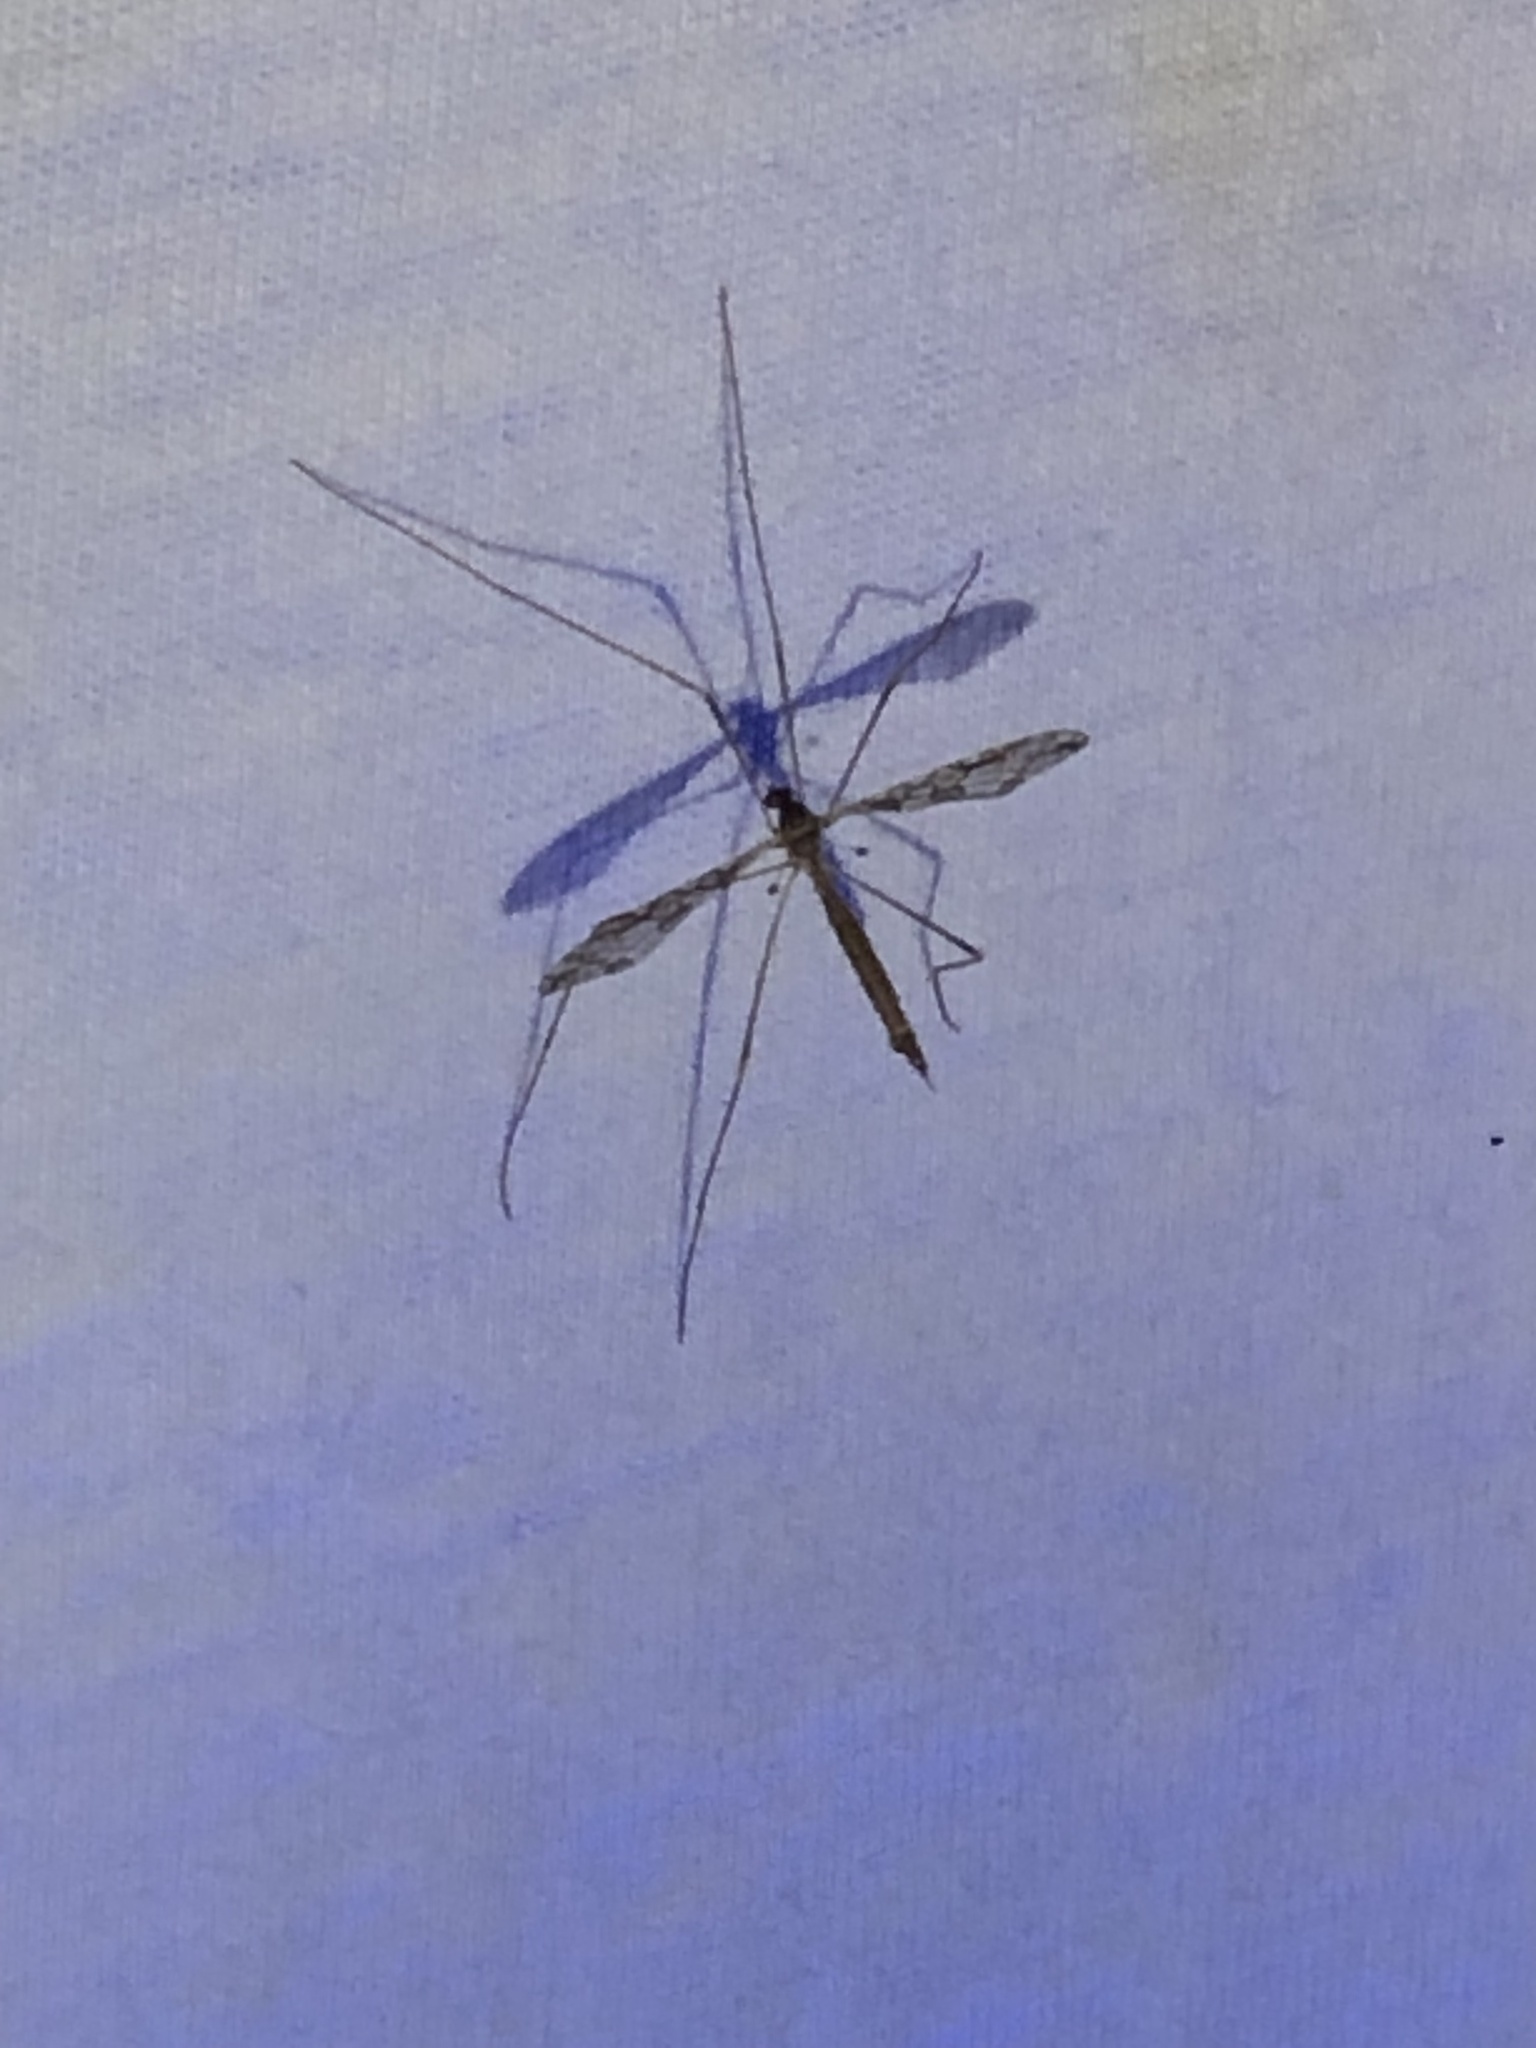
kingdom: Animalia
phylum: Arthropoda
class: Insecta
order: Diptera
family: Limoniidae
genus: Epiphragma
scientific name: Epiphragma solatrix
